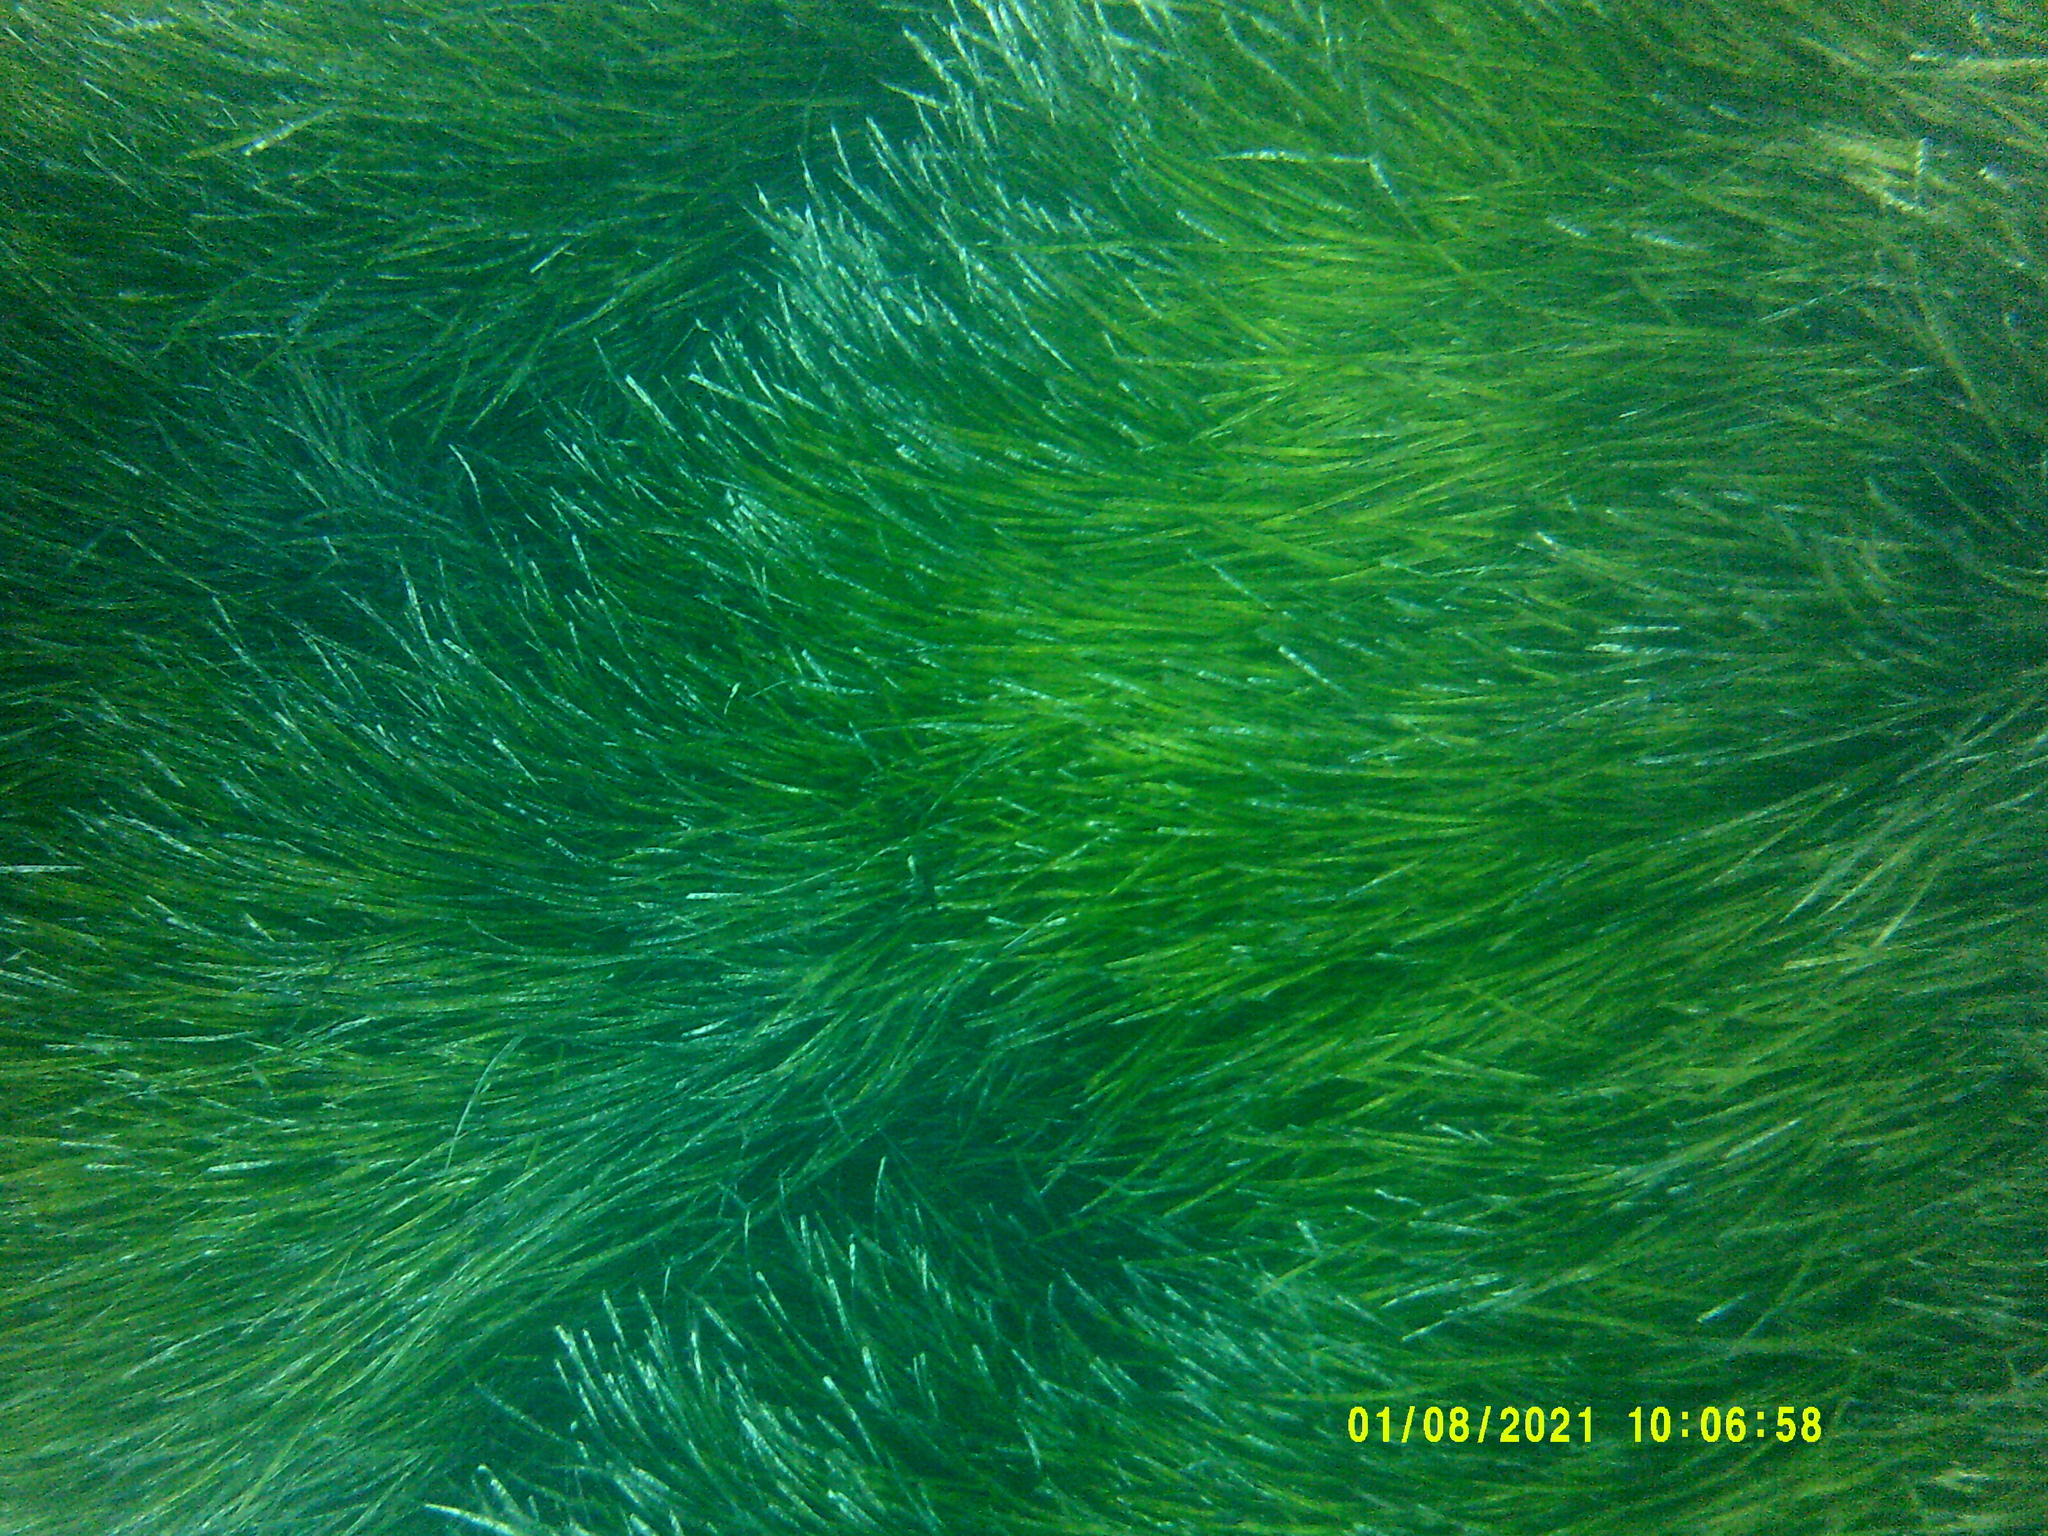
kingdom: Plantae
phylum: Tracheophyta
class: Liliopsida
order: Alismatales
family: Posidoniaceae
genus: Posidonia
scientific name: Posidonia oceanica
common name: Mediterranean tapeweed
